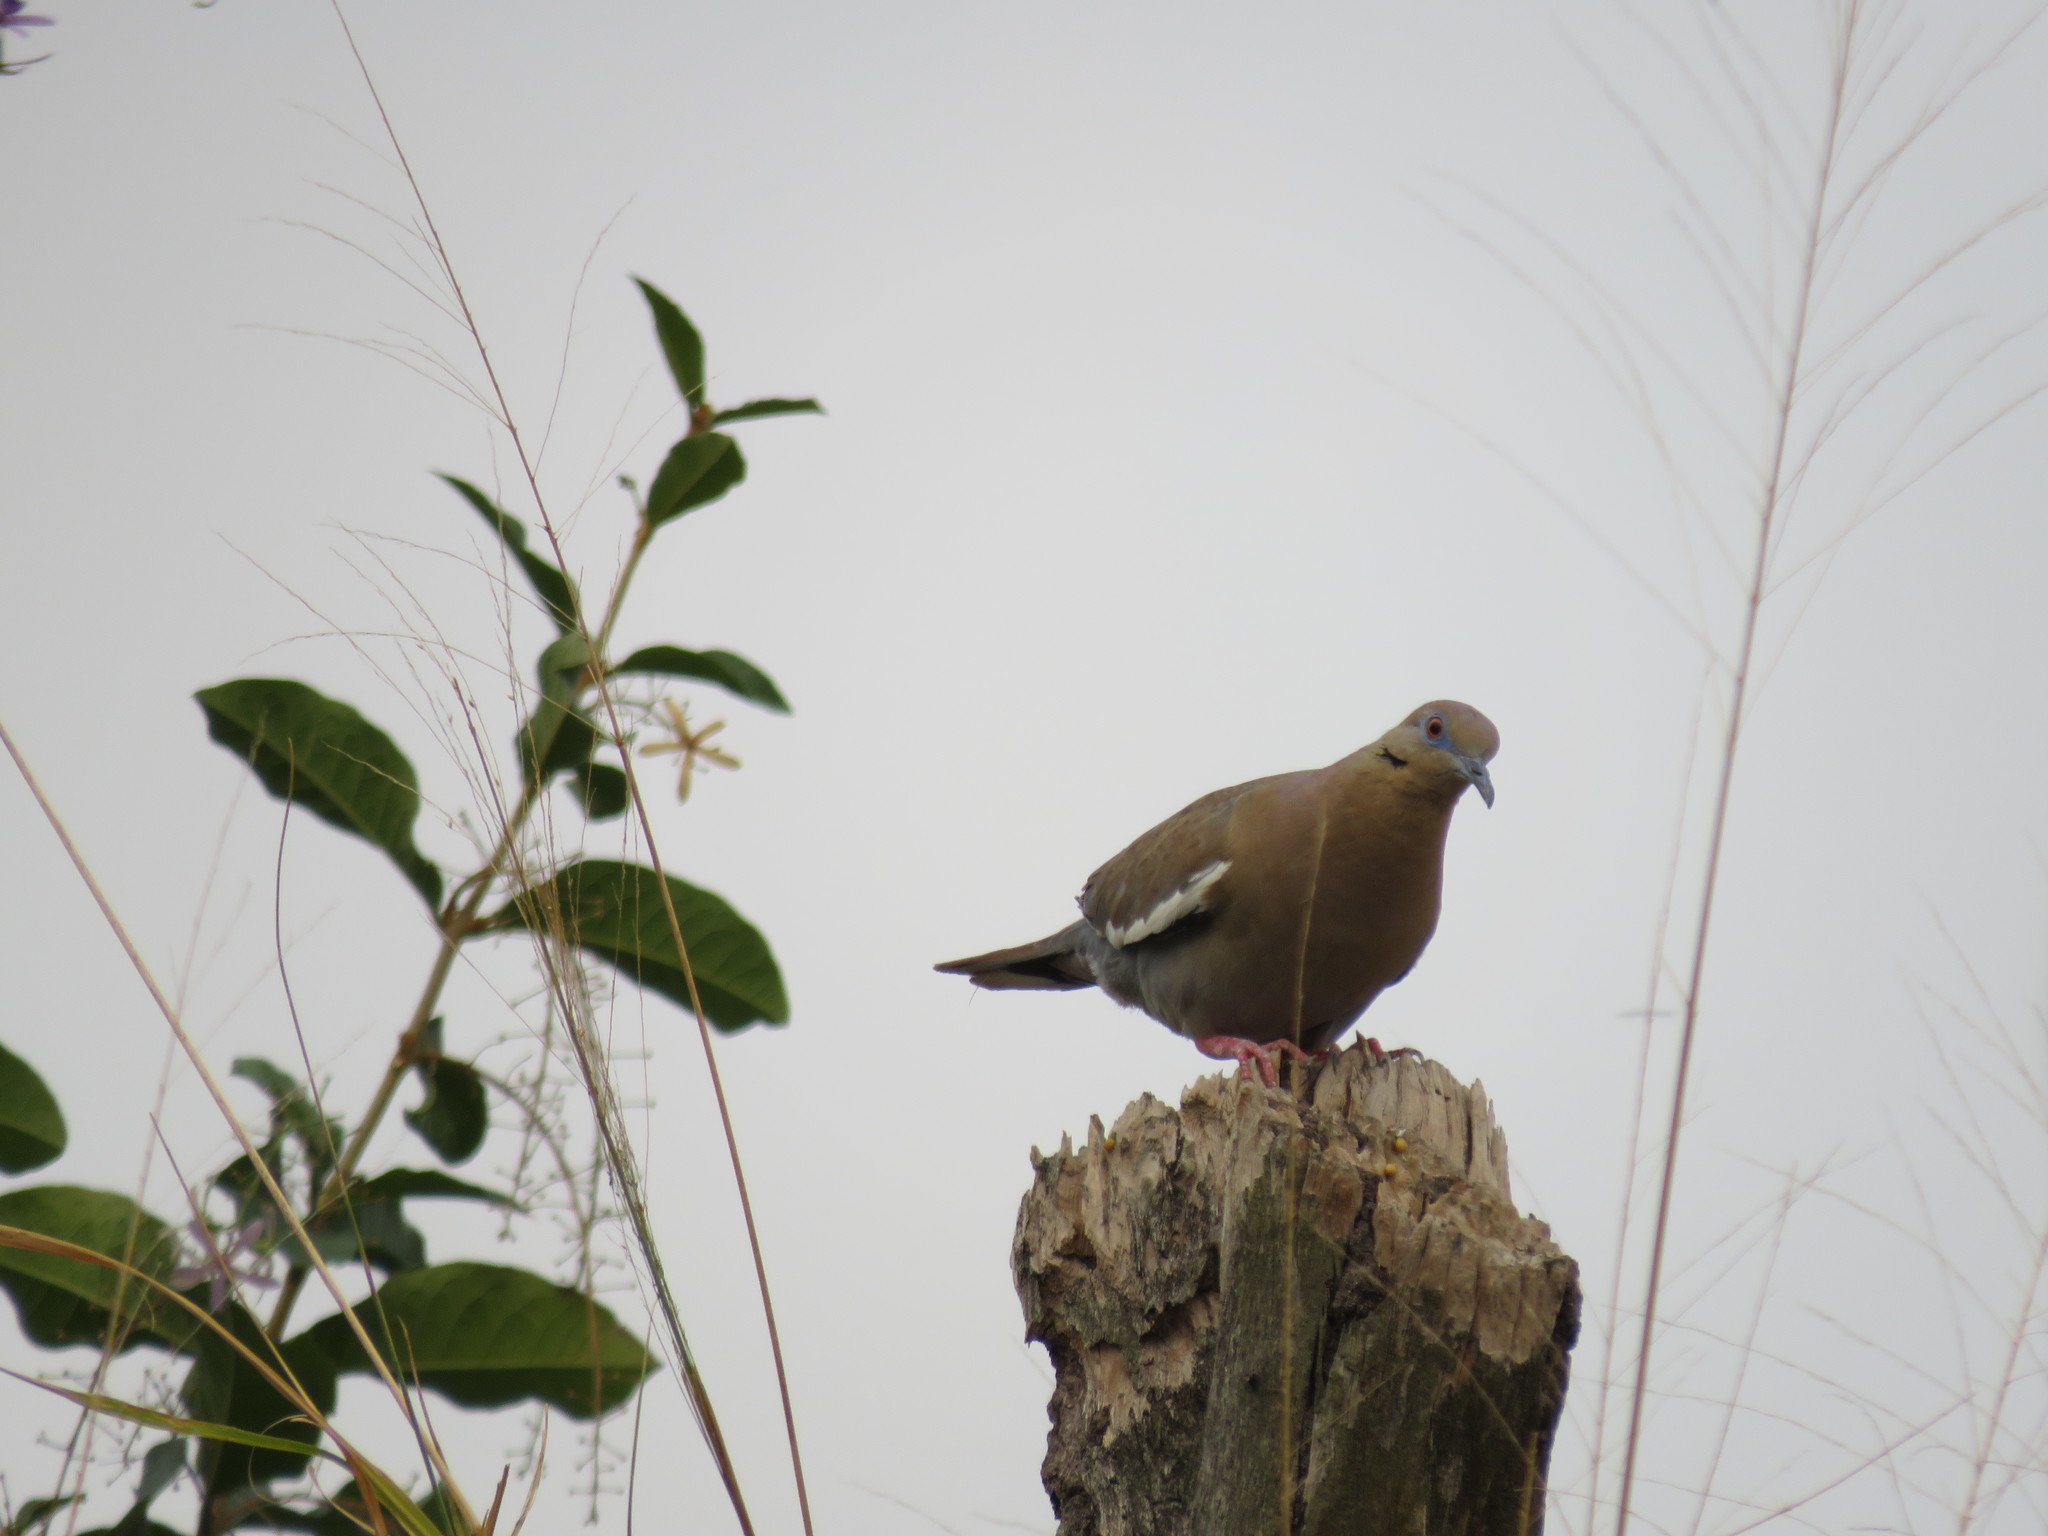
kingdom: Animalia
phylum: Chordata
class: Aves
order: Columbiformes
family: Columbidae
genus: Zenaida
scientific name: Zenaida asiatica
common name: White-winged dove
